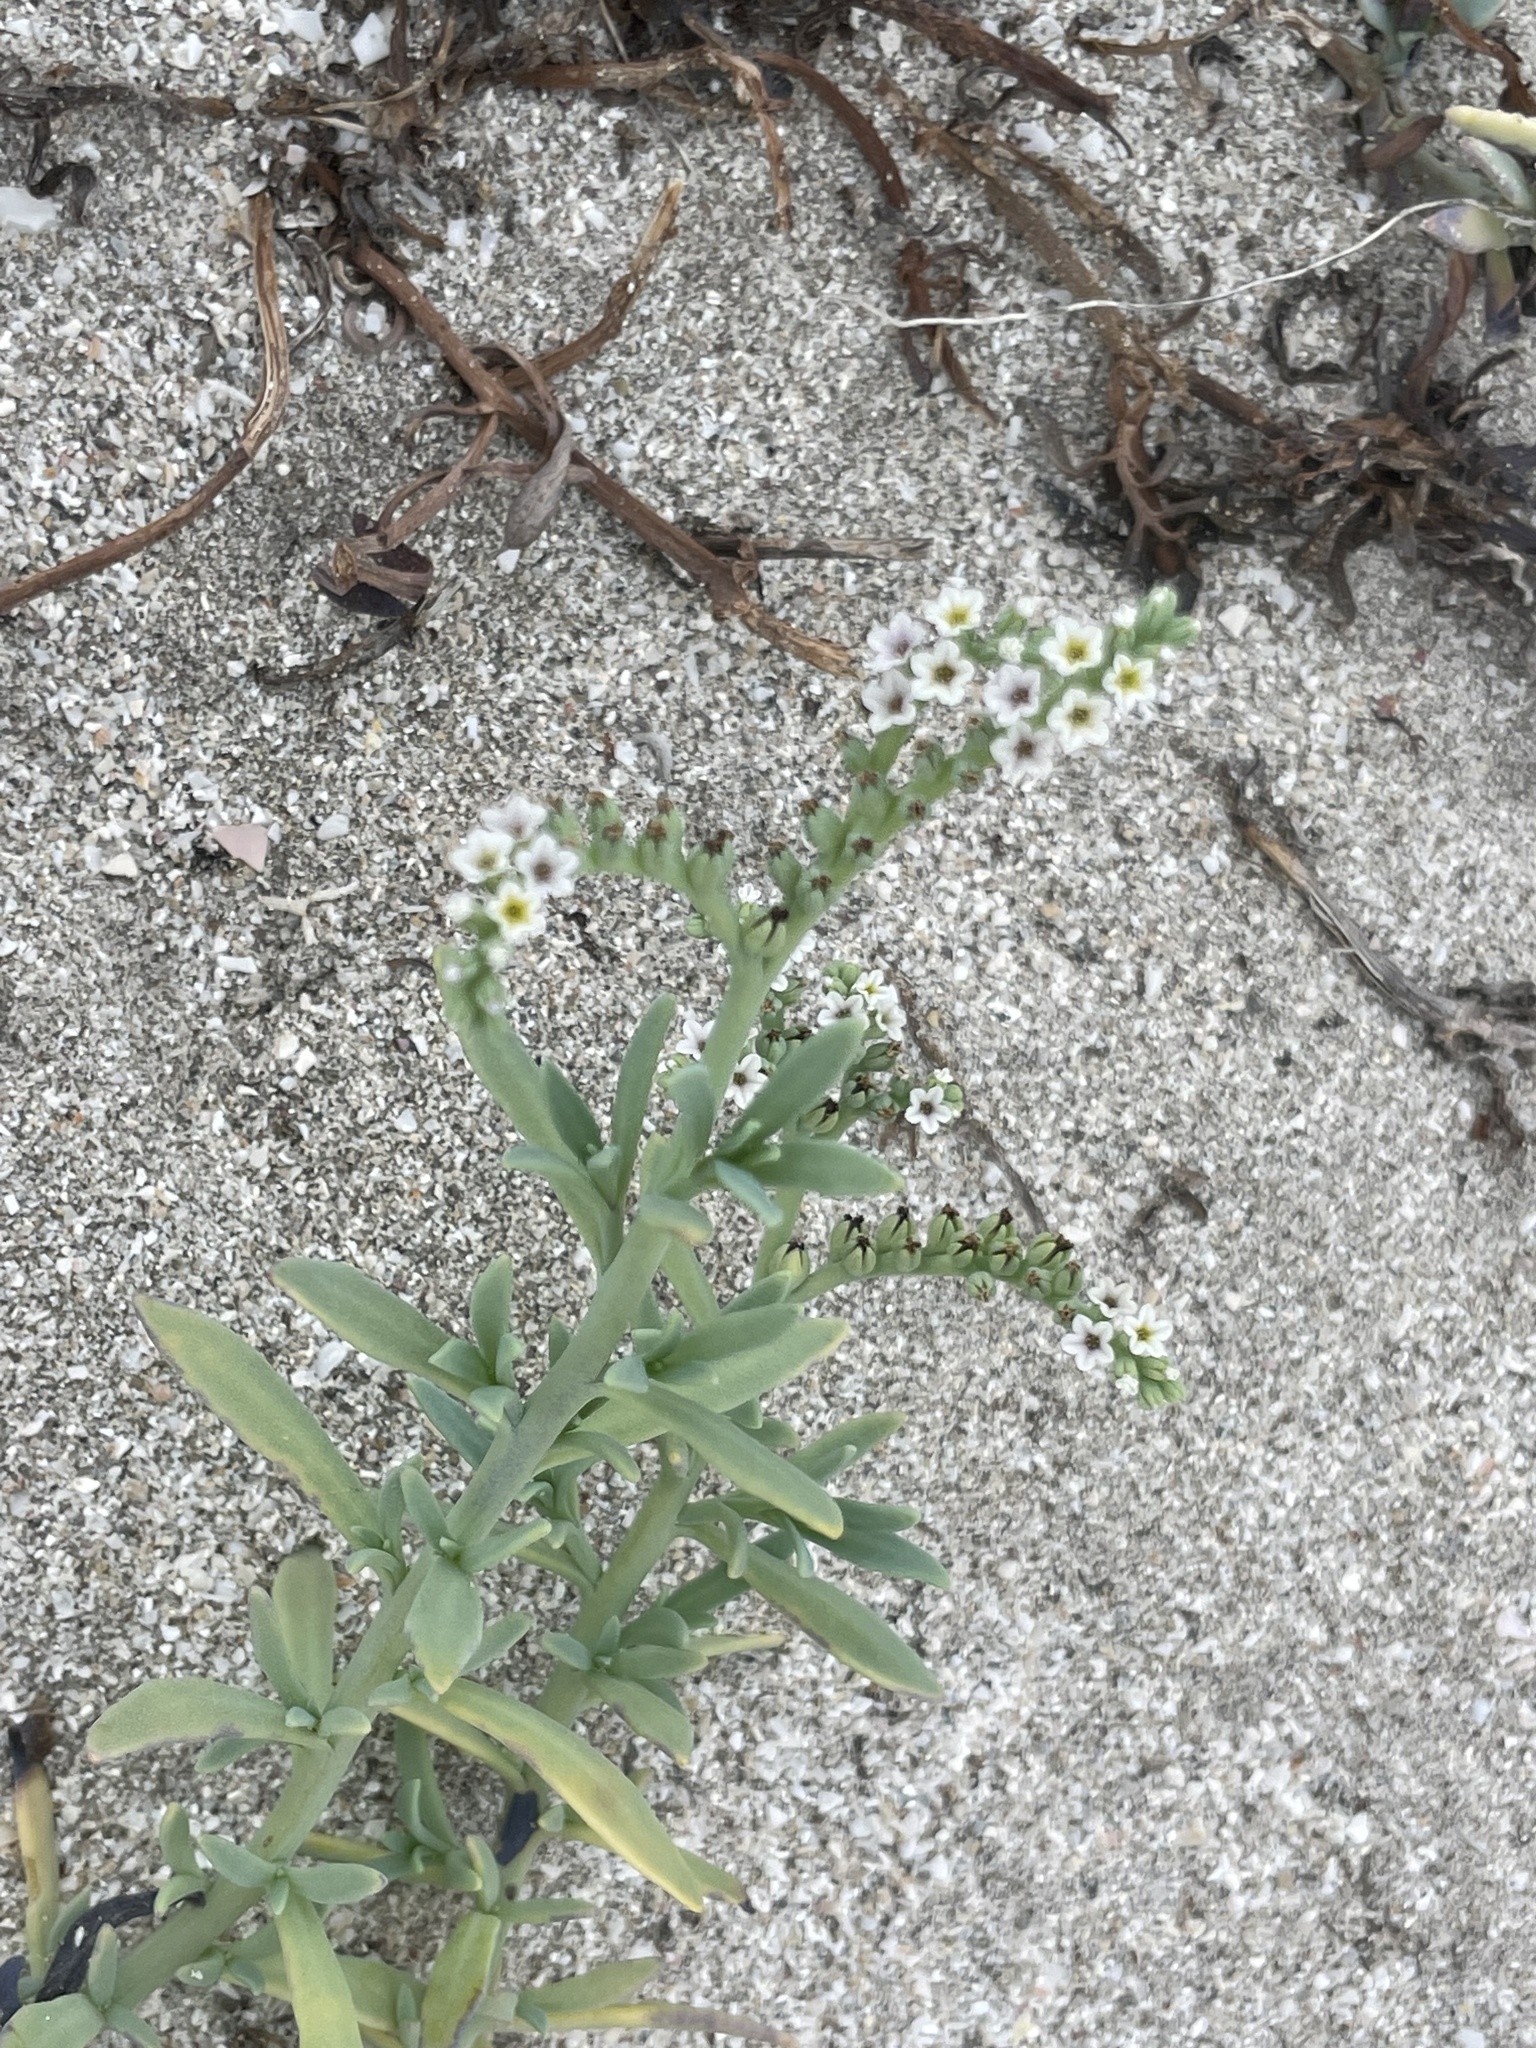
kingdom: Plantae
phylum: Tracheophyta
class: Magnoliopsida
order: Boraginales
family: Heliotropiaceae
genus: Heliotropium
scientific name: Heliotropium curassavicum
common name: Seaside heliotrope
